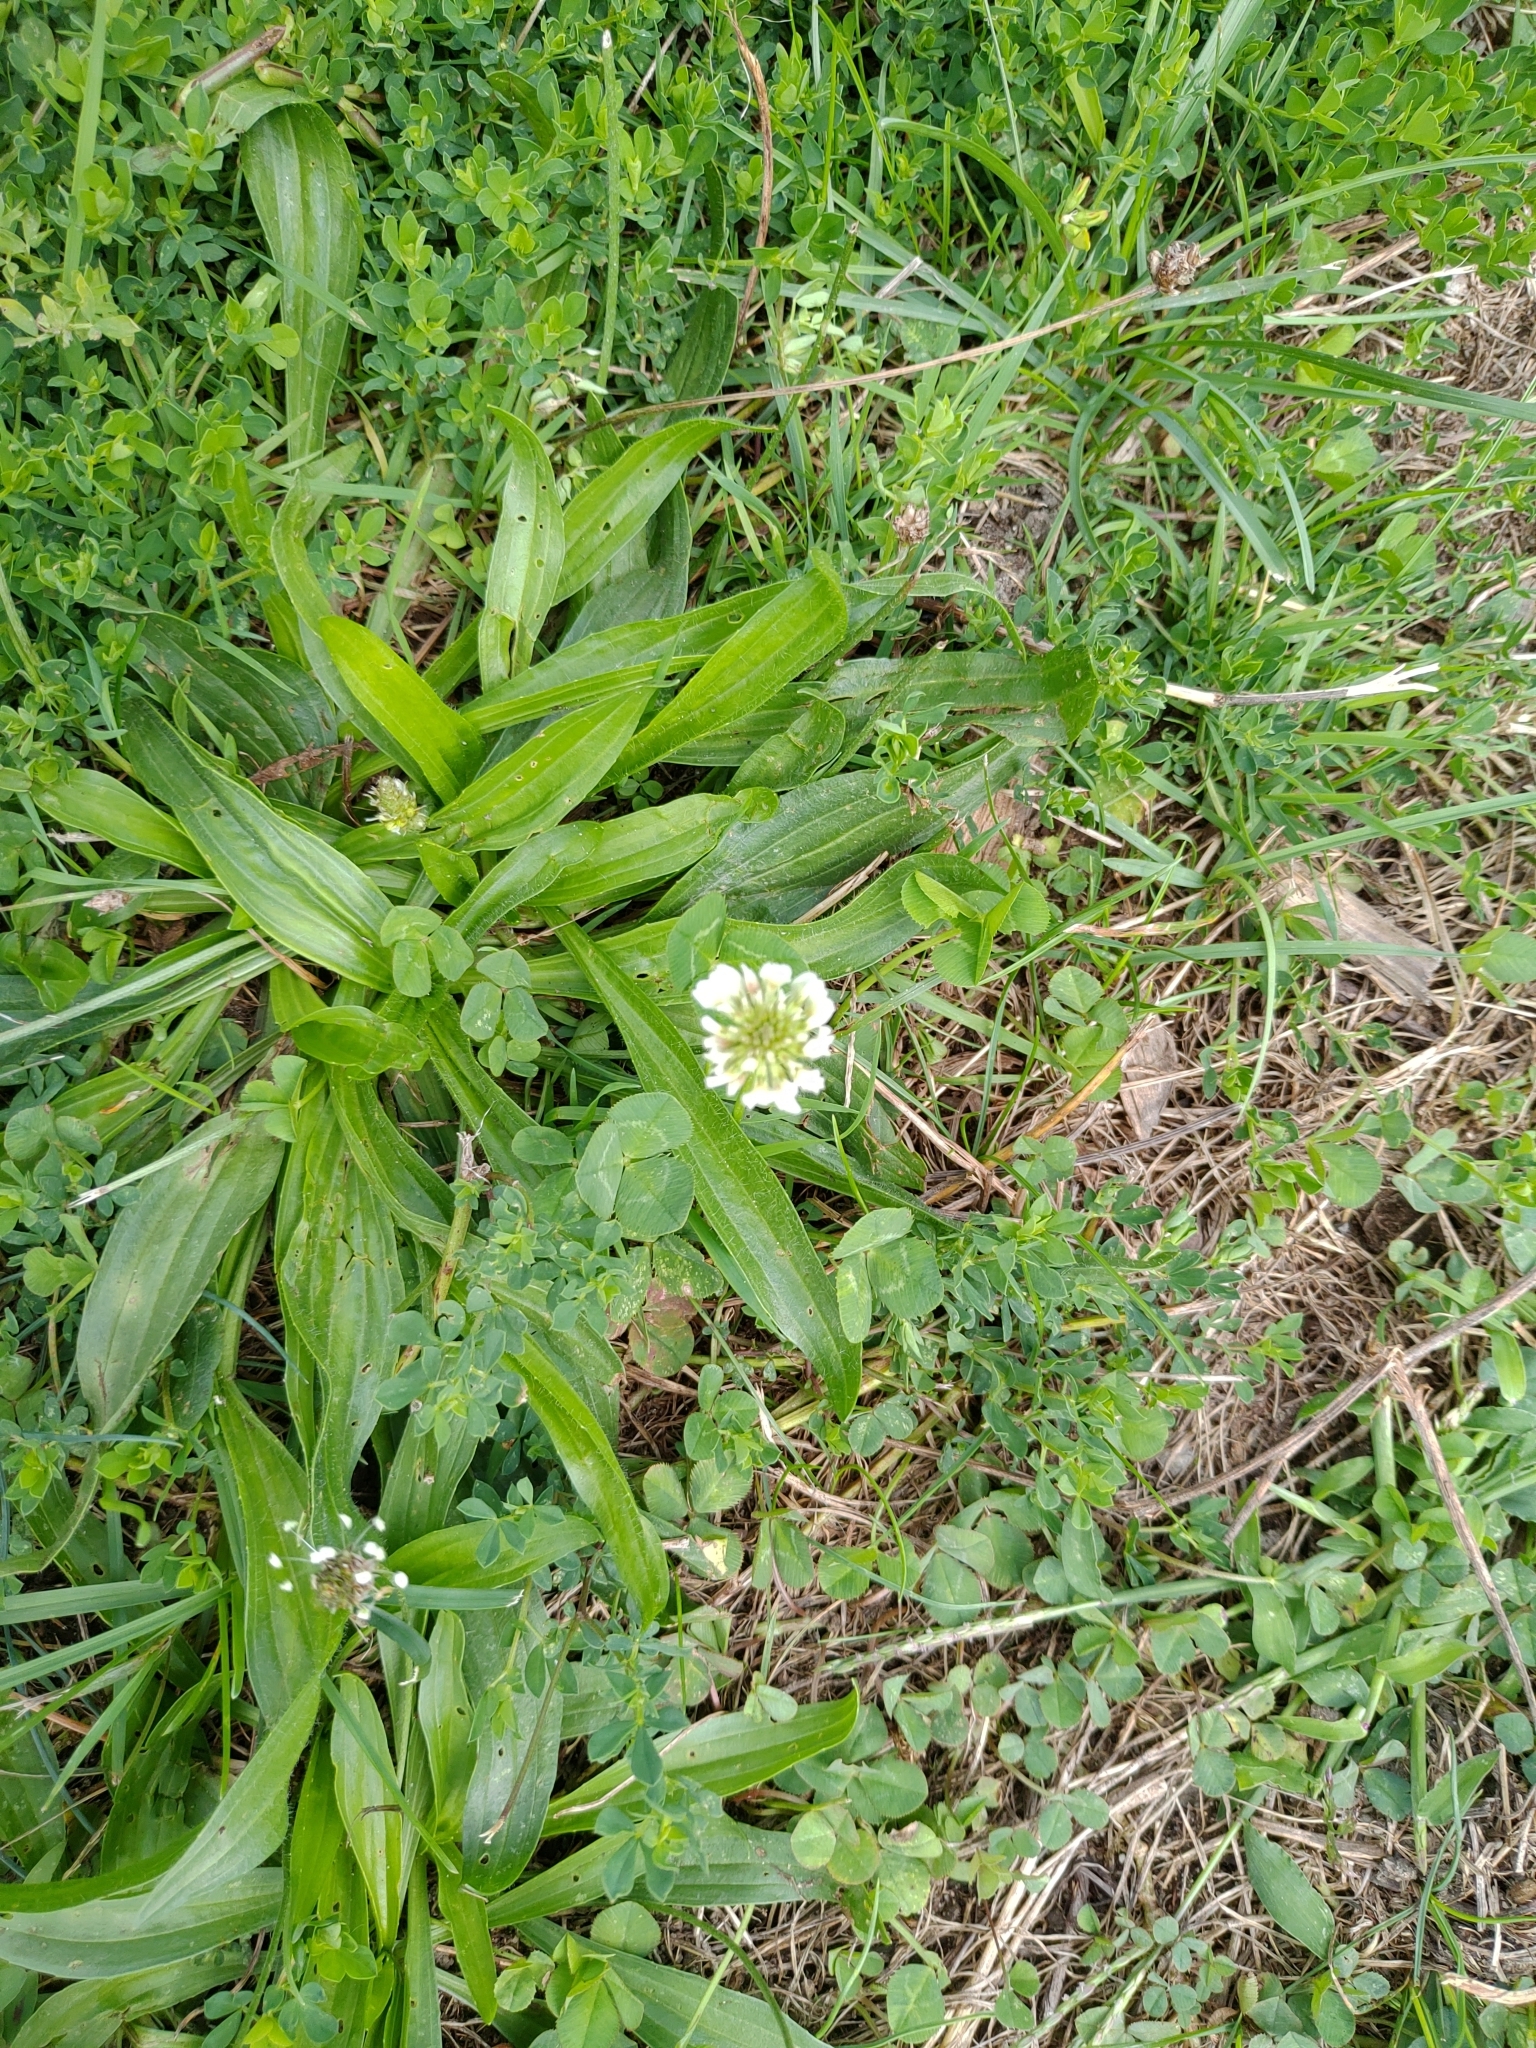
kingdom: Plantae
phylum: Tracheophyta
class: Magnoliopsida
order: Fabales
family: Fabaceae
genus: Trifolium
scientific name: Trifolium repens
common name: White clover
